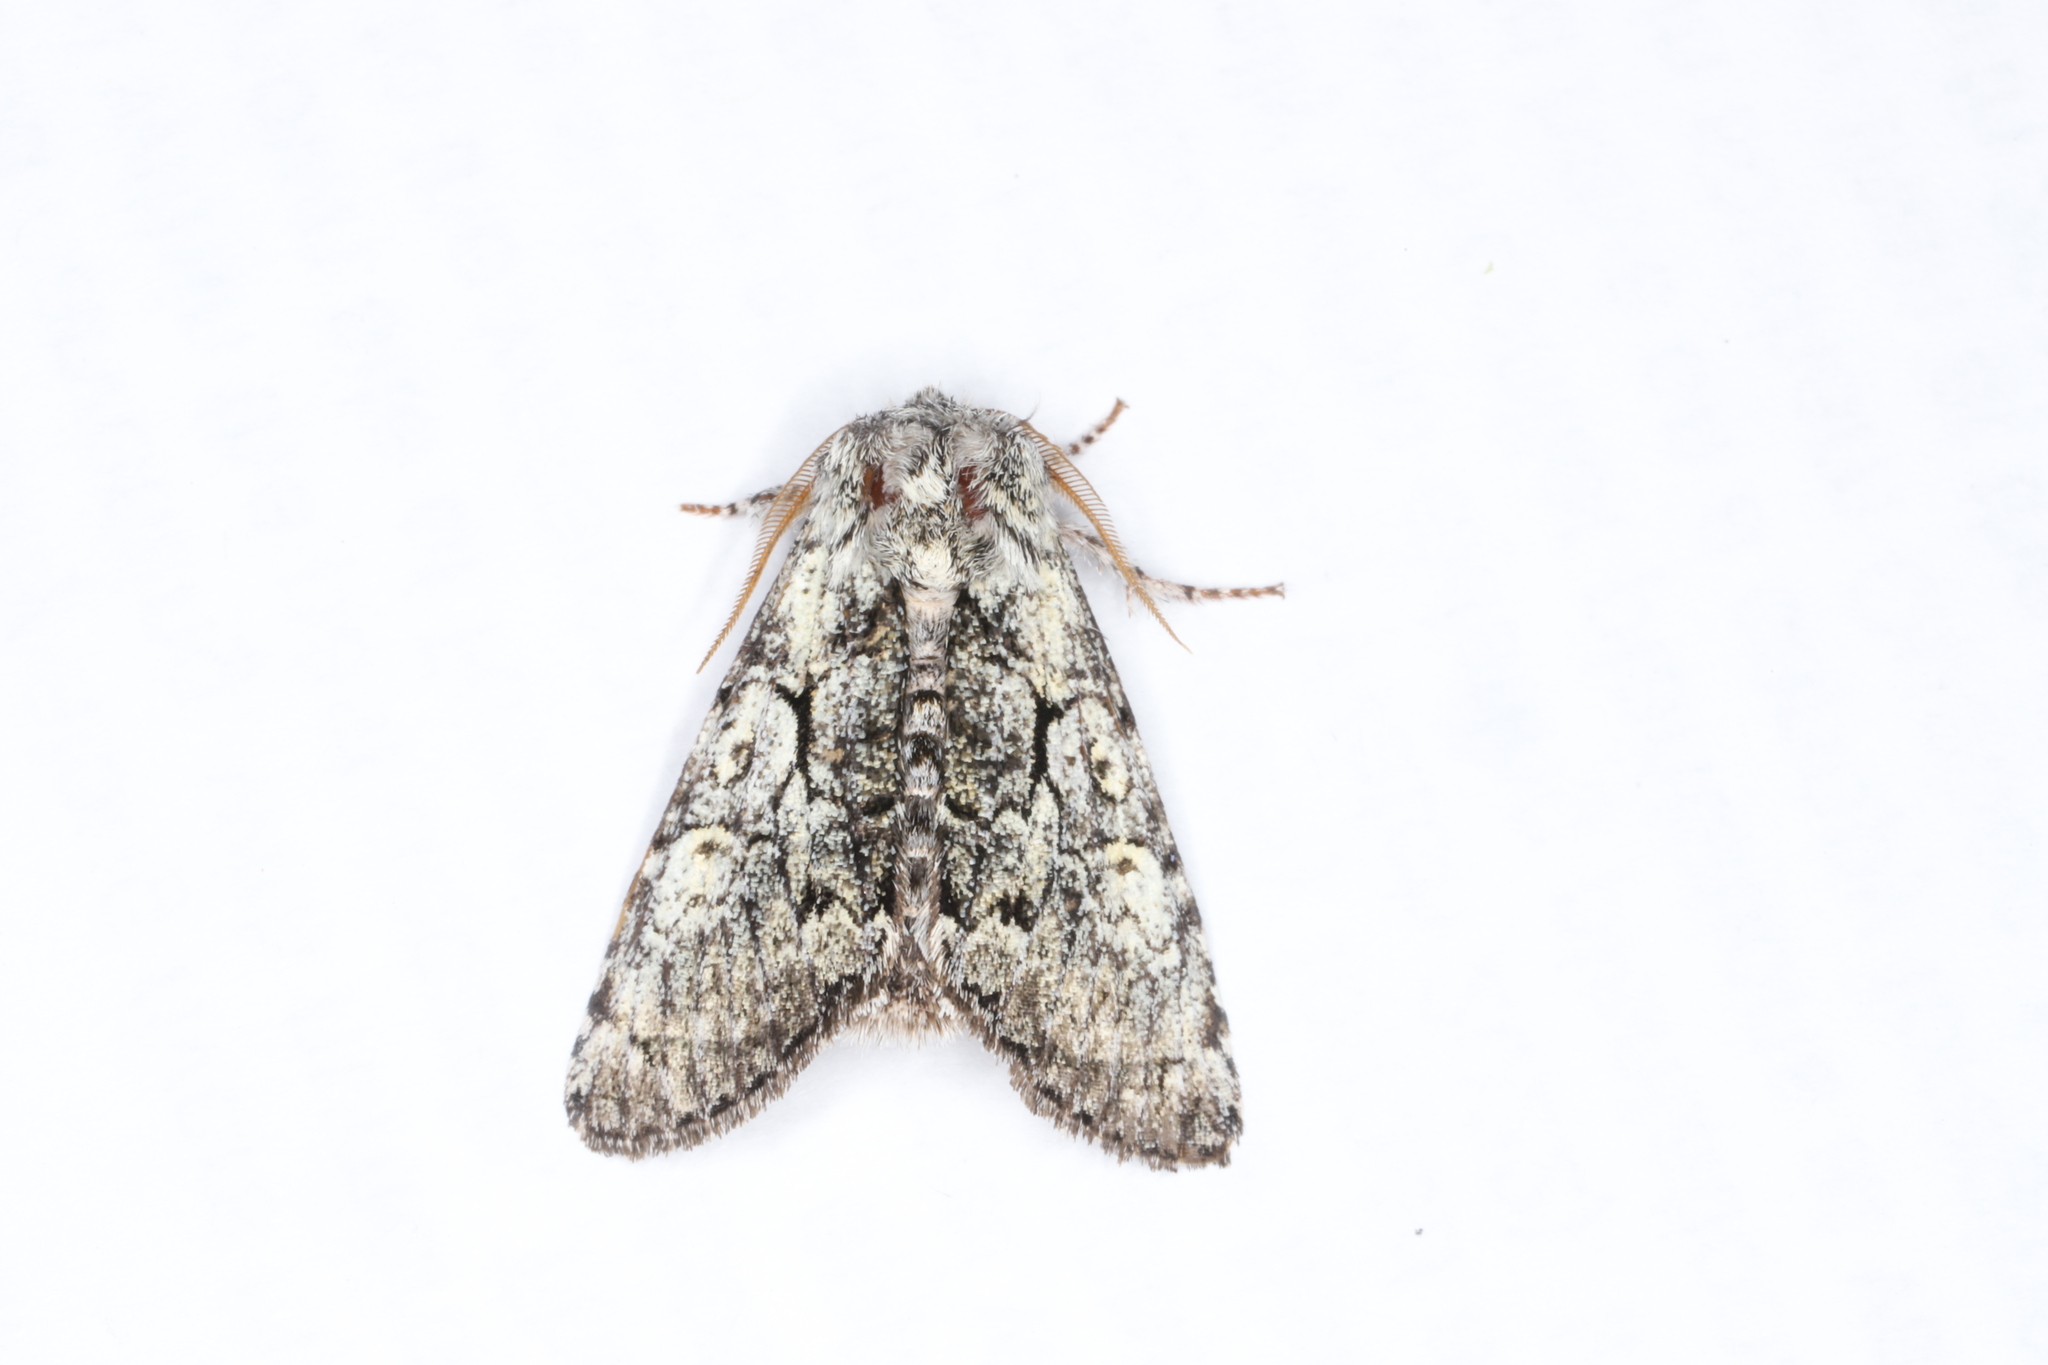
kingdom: Animalia
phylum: Arthropoda
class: Insecta
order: Lepidoptera
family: Noctuidae
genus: Charadra
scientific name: Charadra deridens
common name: Marbled tuffet
